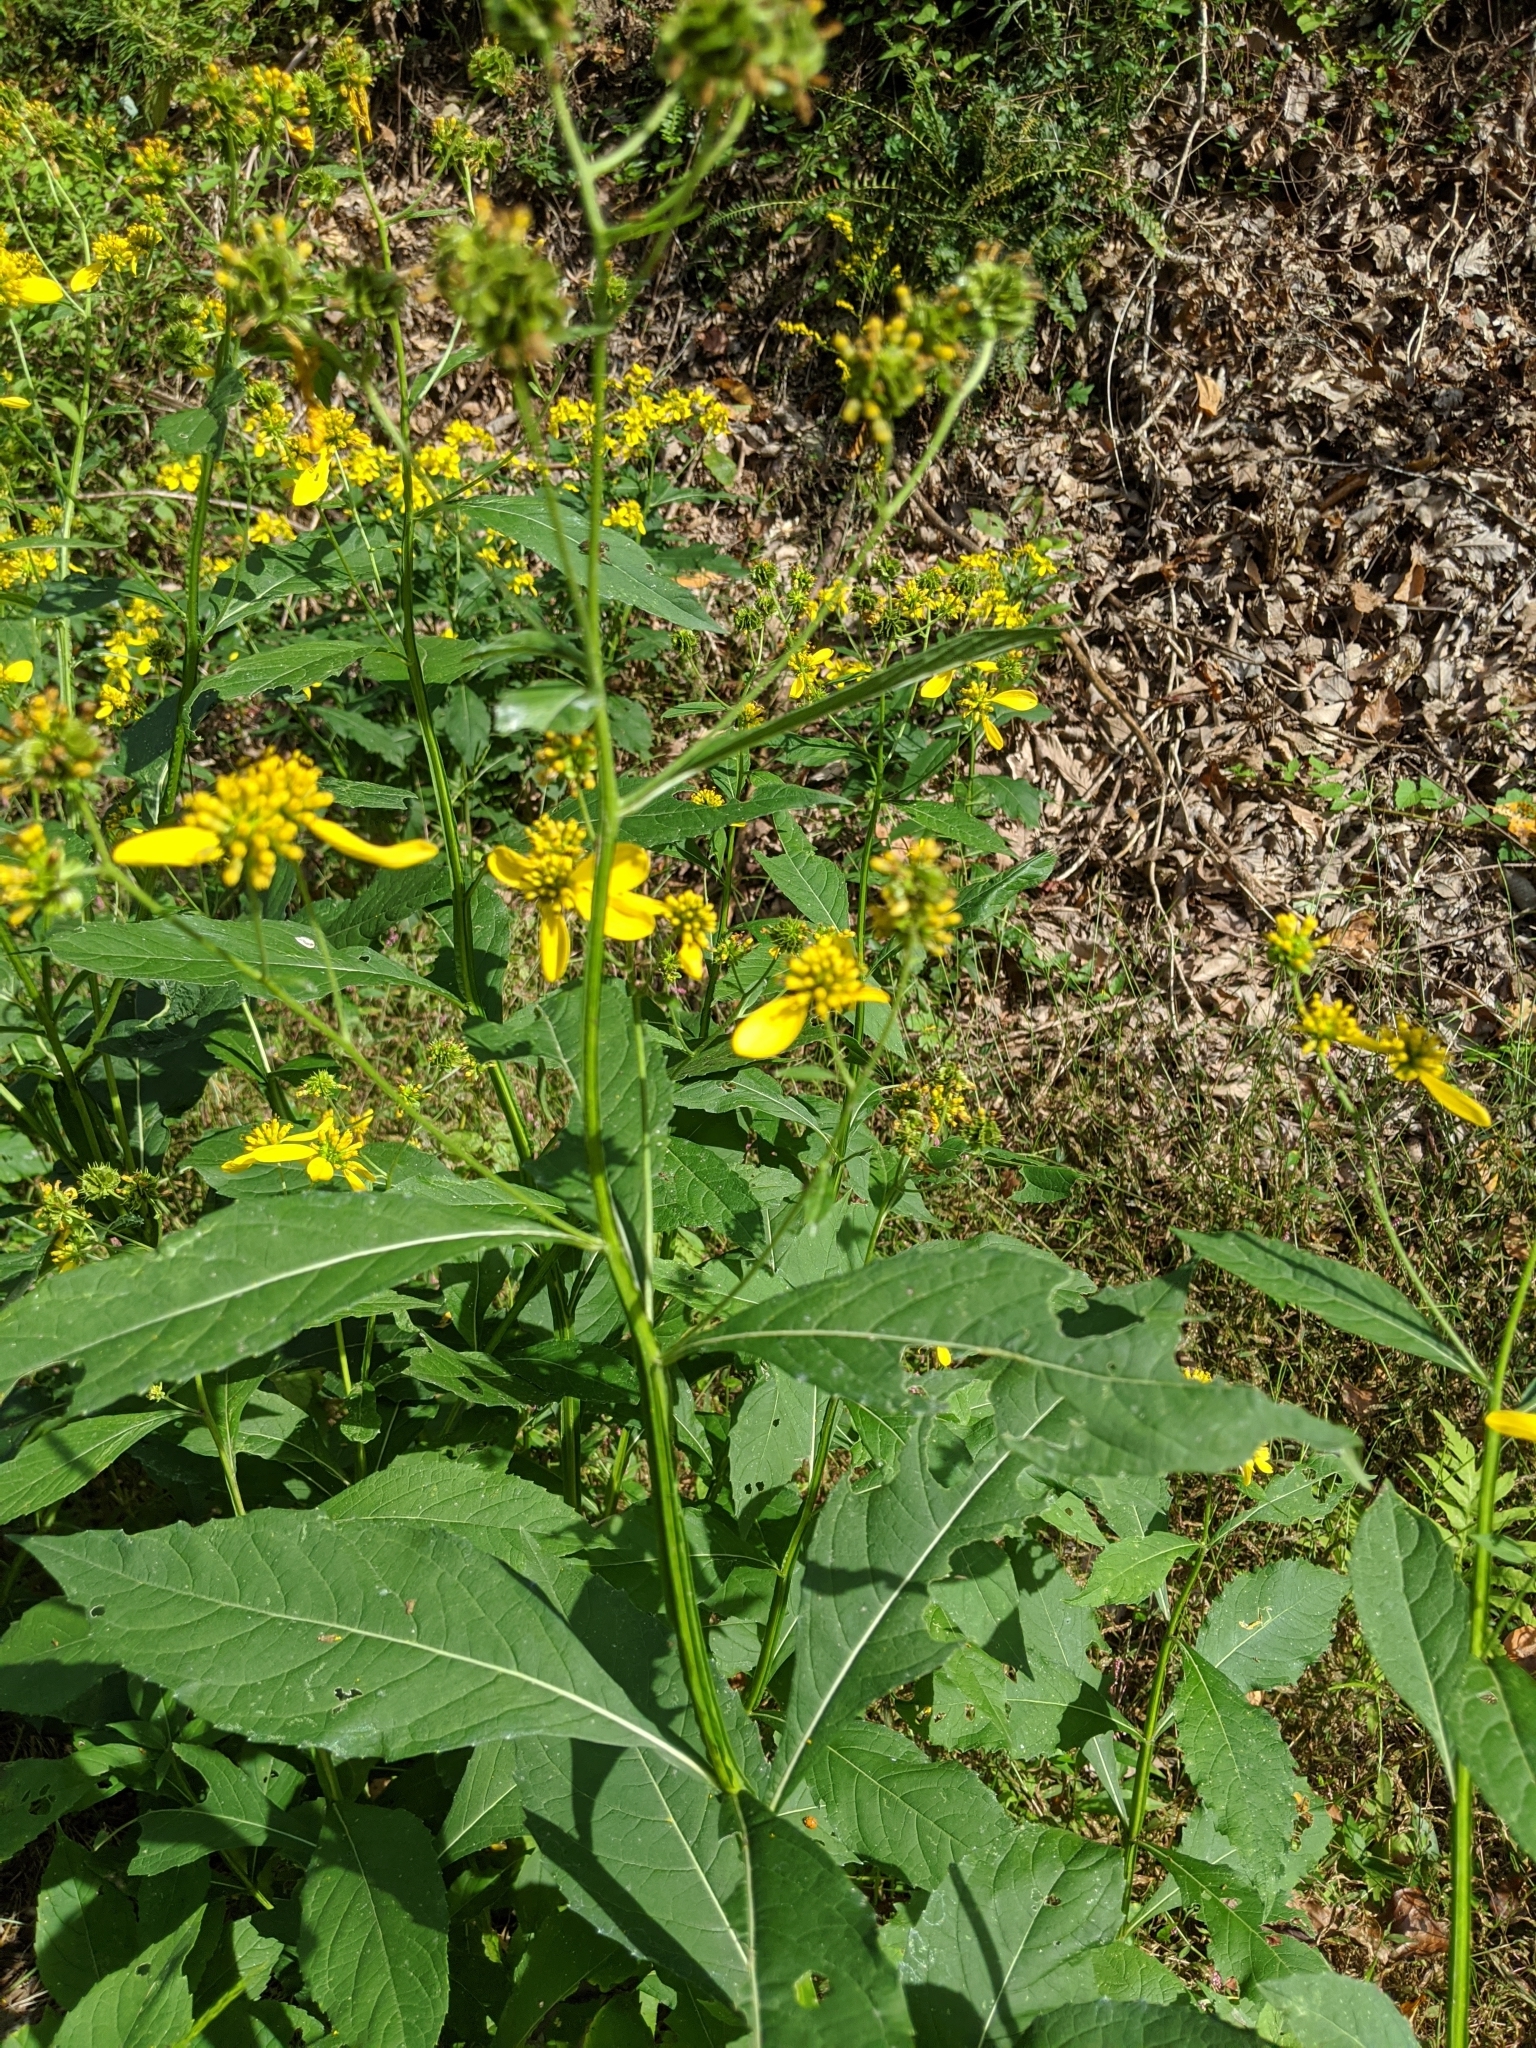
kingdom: Plantae
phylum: Tracheophyta
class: Magnoliopsida
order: Asterales
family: Asteraceae
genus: Verbesina
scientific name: Verbesina alternifolia
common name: Wingstem
